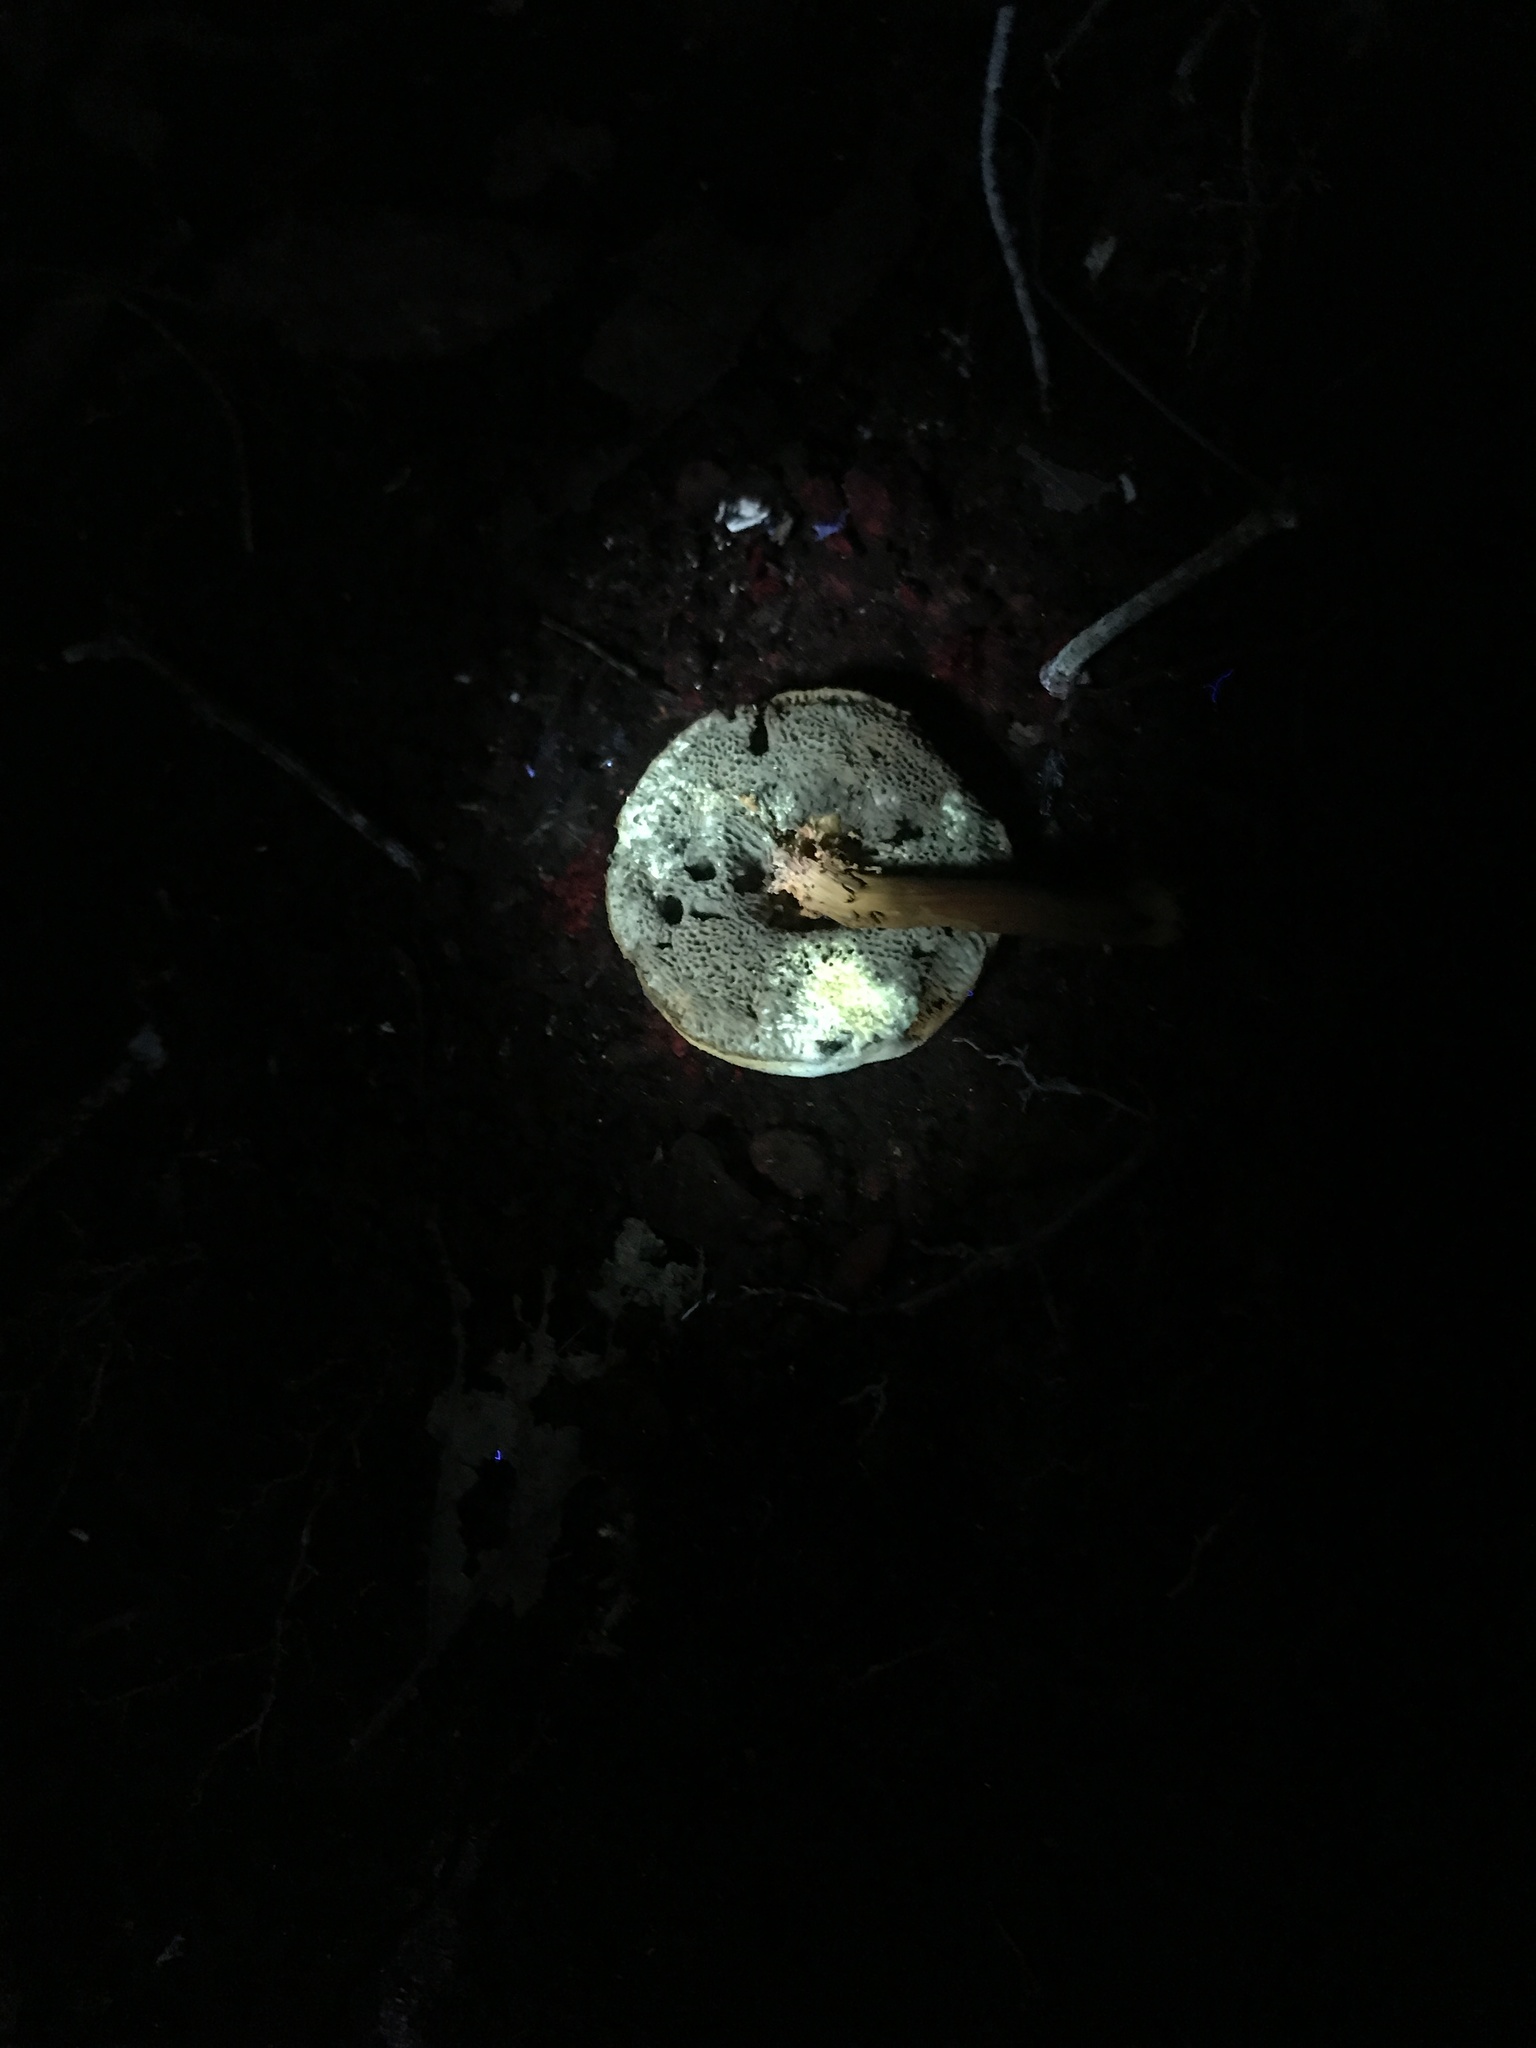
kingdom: Fungi
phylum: Ascomycota
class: Sordariomycetes
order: Hypocreales
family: Hypocreaceae
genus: Hypomyces
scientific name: Hypomyces chrysospermus
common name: Bolete mould
